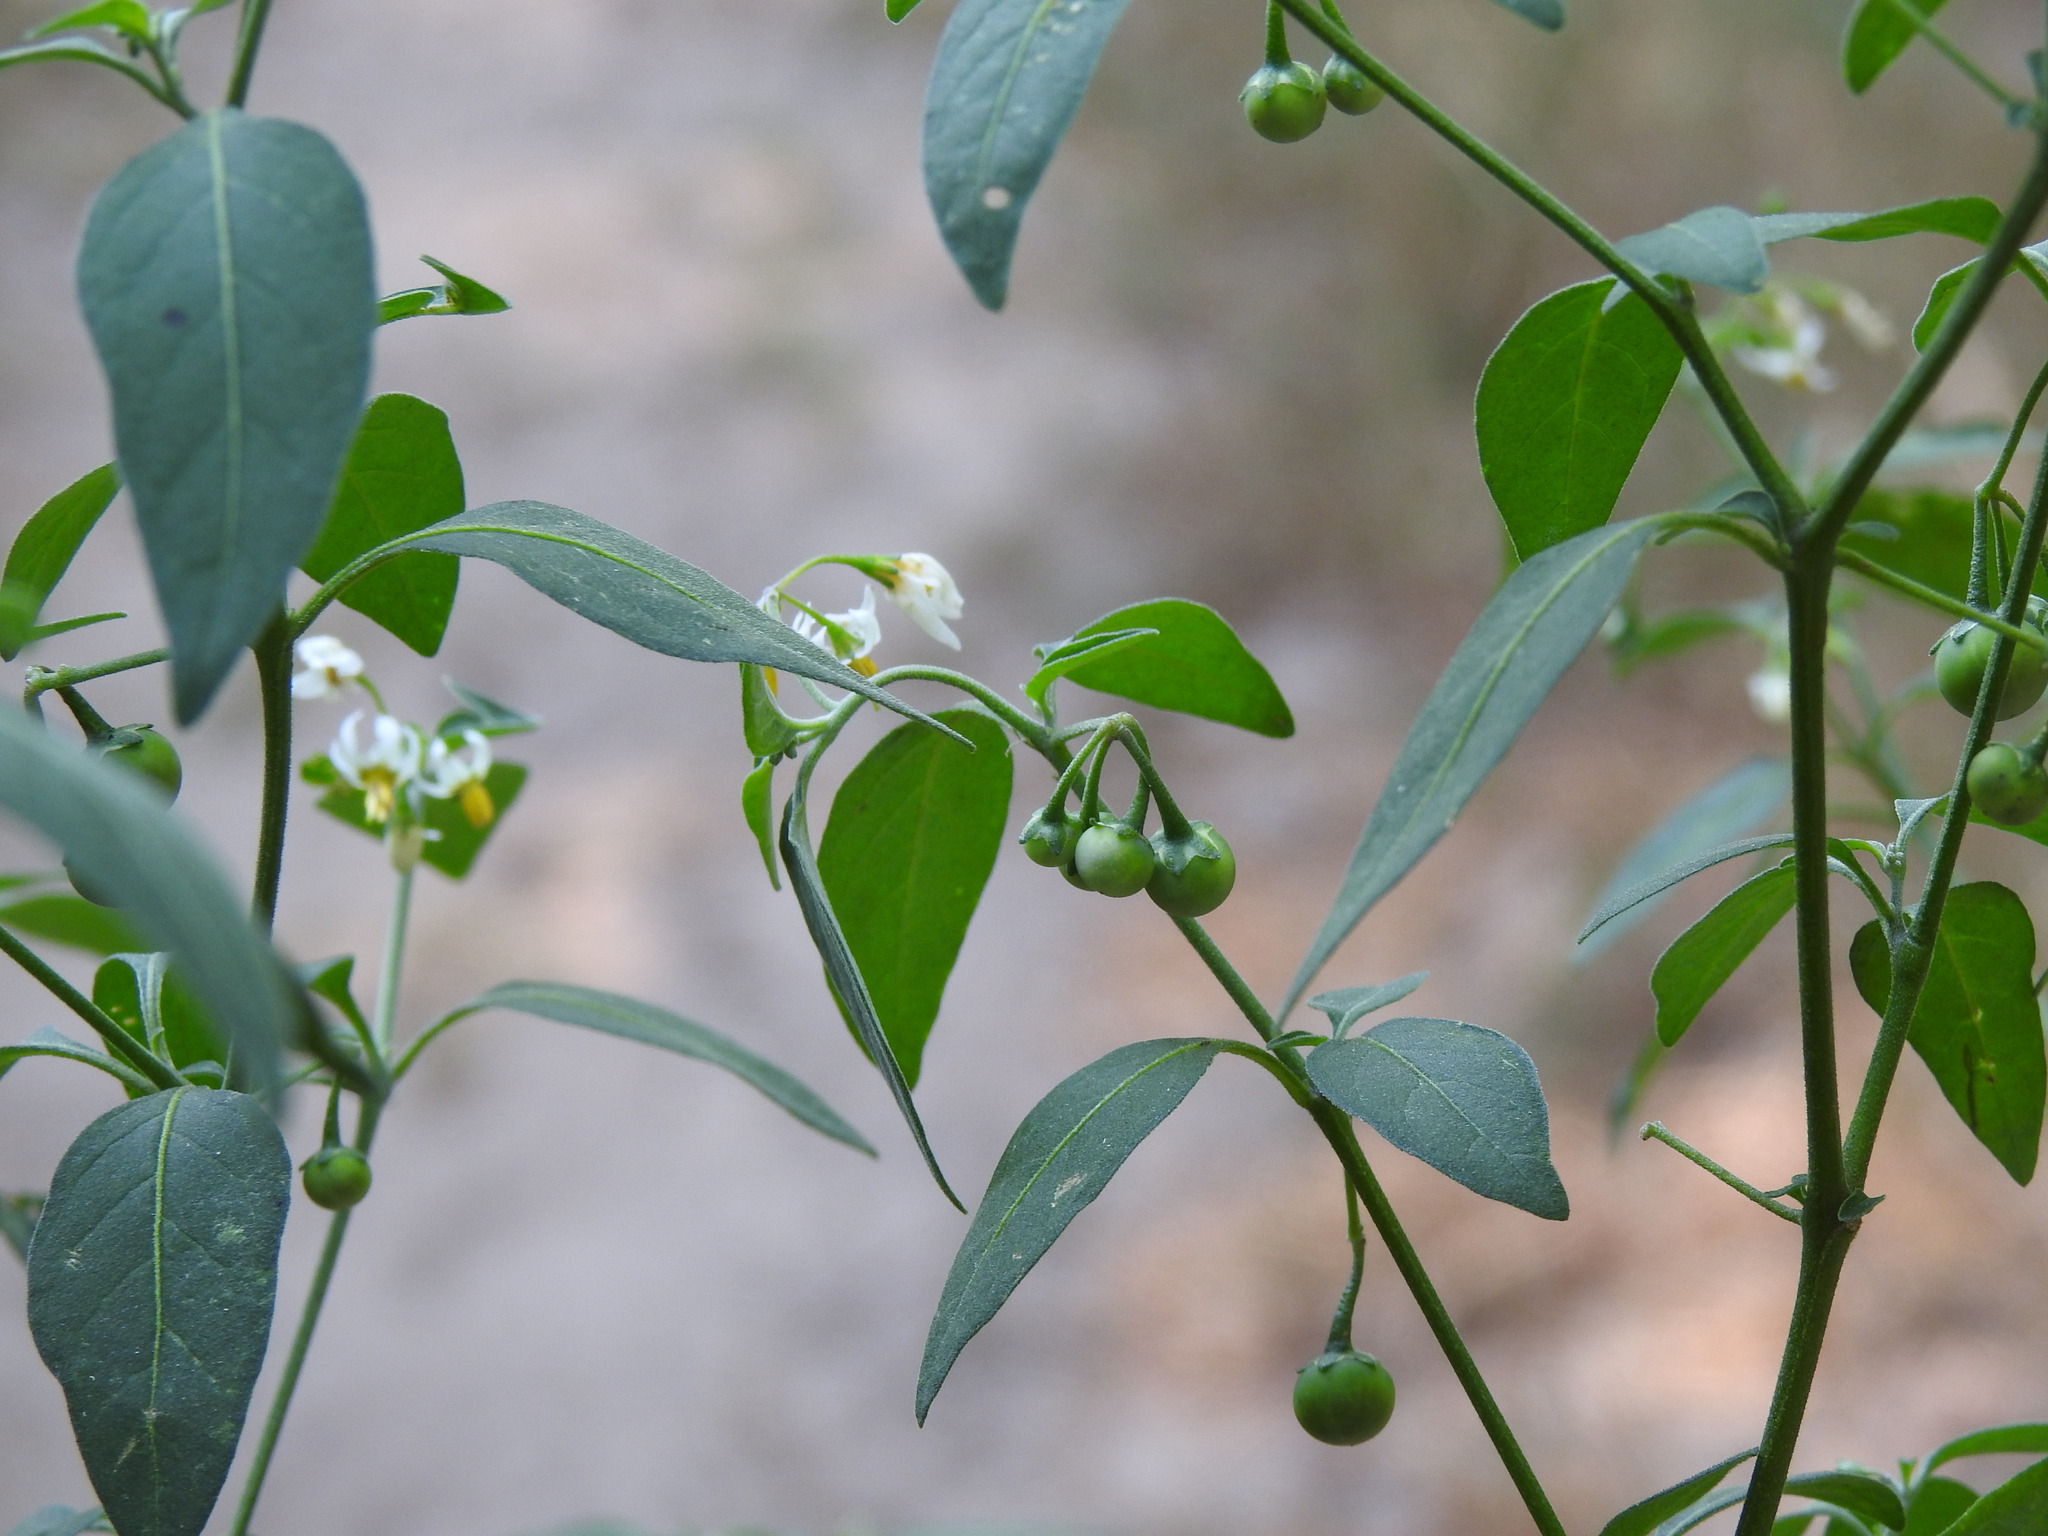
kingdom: Plantae
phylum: Tracheophyta
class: Magnoliopsida
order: Solanales
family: Solanaceae
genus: Solanum
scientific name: Solanum chenopodioides
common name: Tall nightshade
